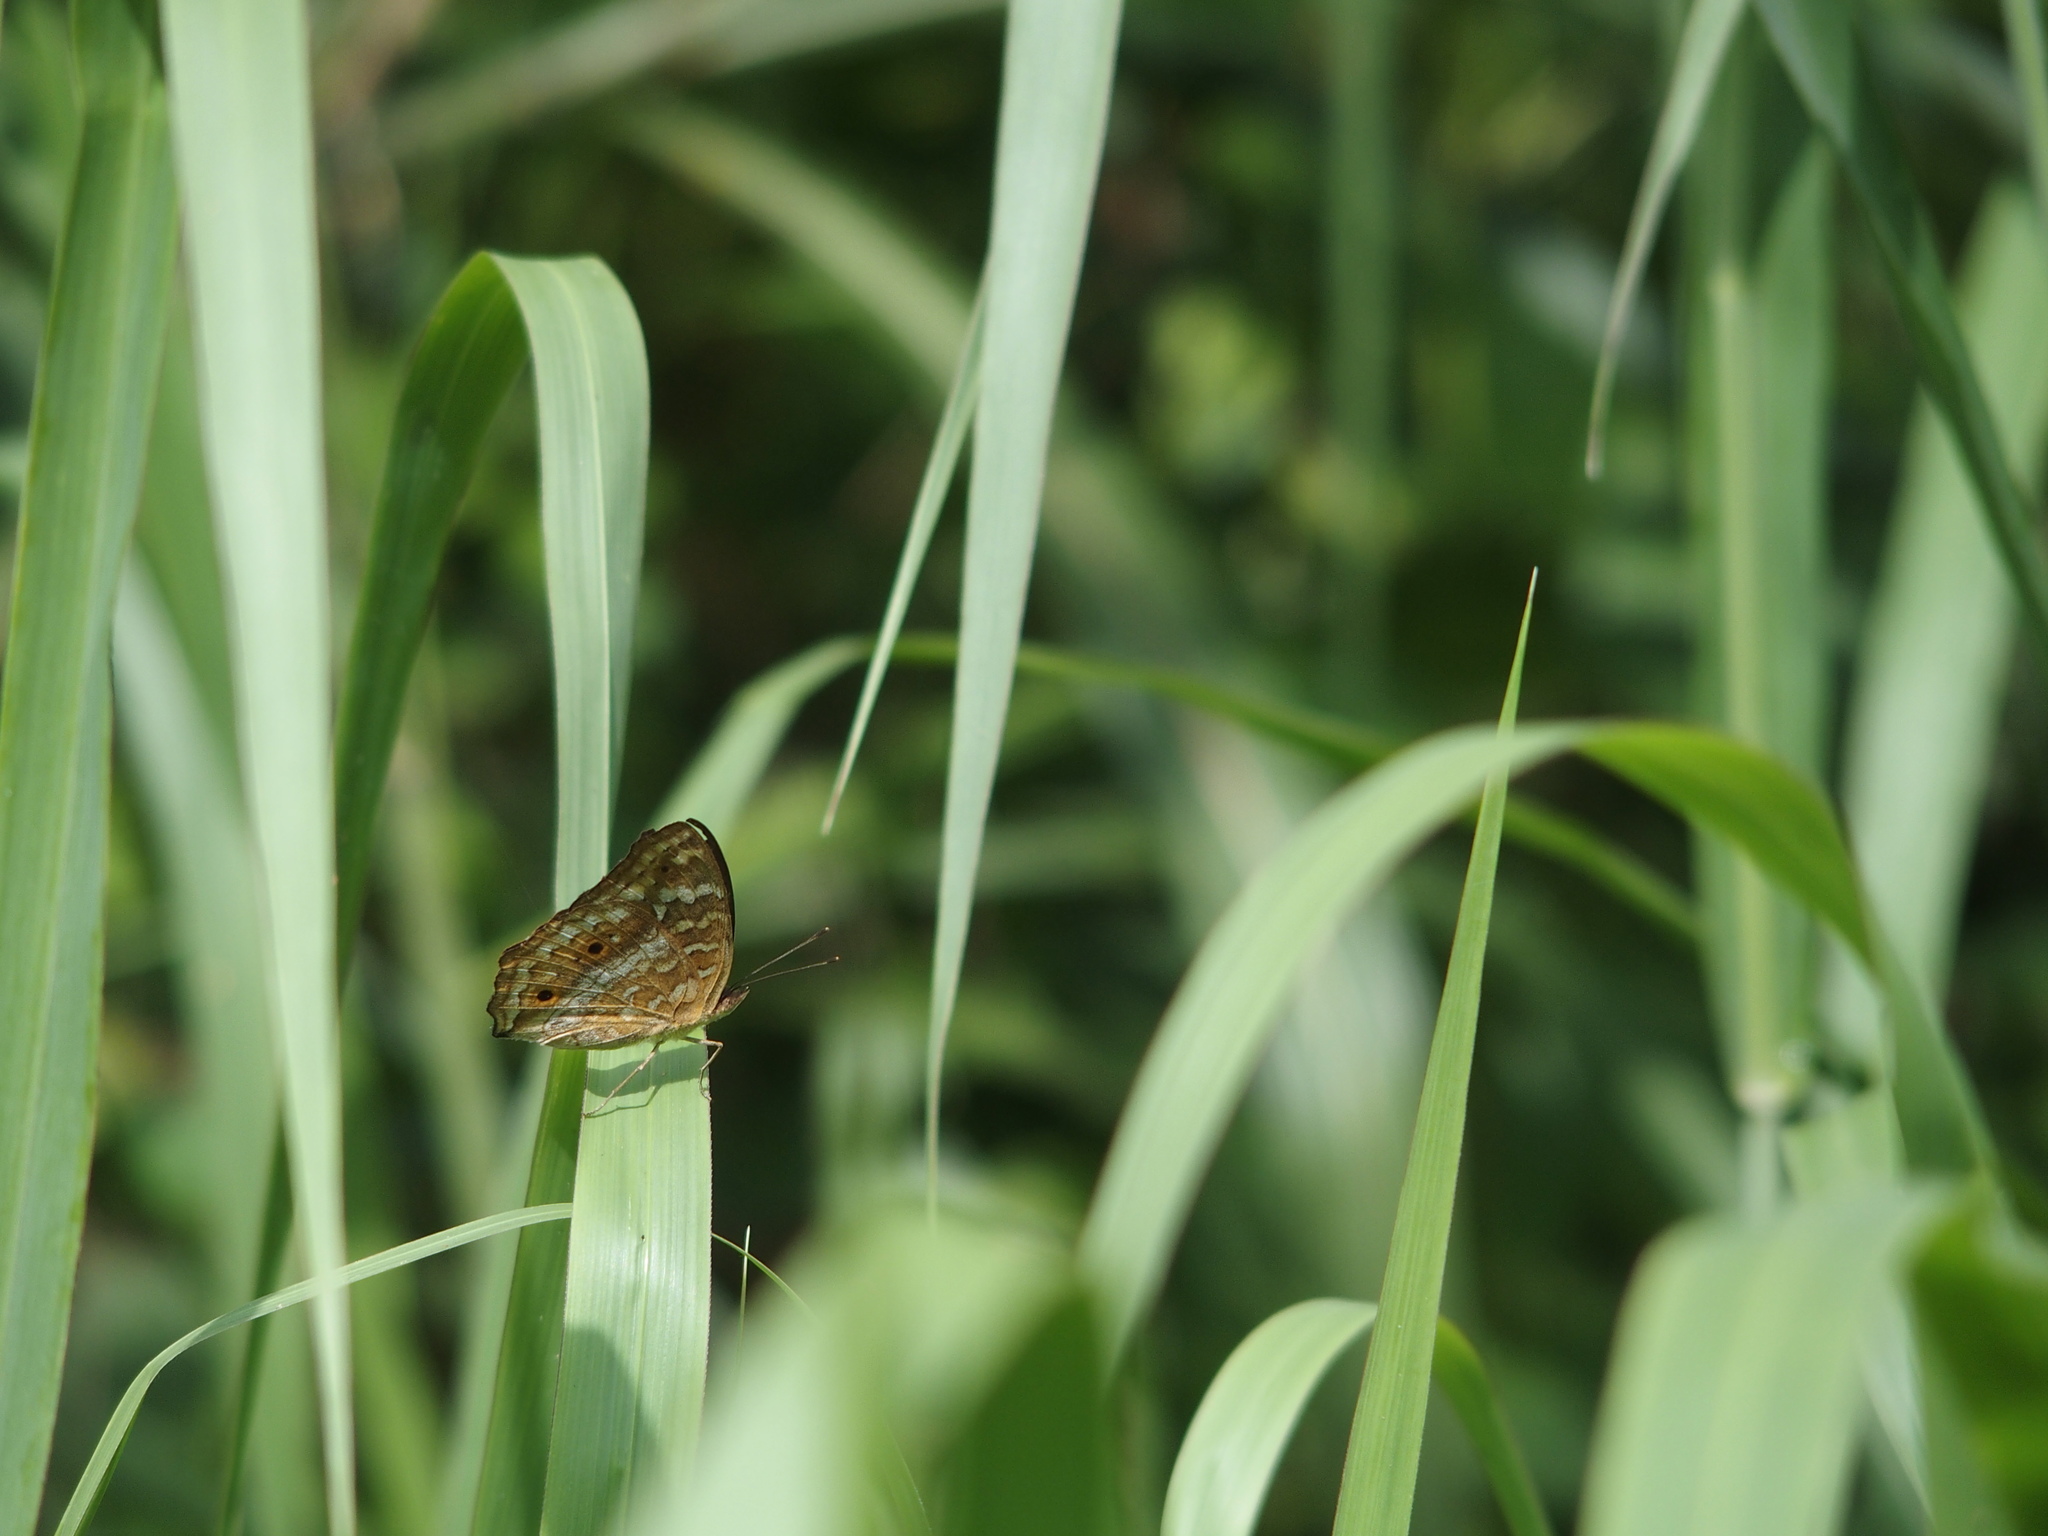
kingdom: Animalia
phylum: Arthropoda
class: Insecta
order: Lepidoptera
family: Nymphalidae
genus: Junonia
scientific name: Junonia lemonias
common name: Lemon pansy
